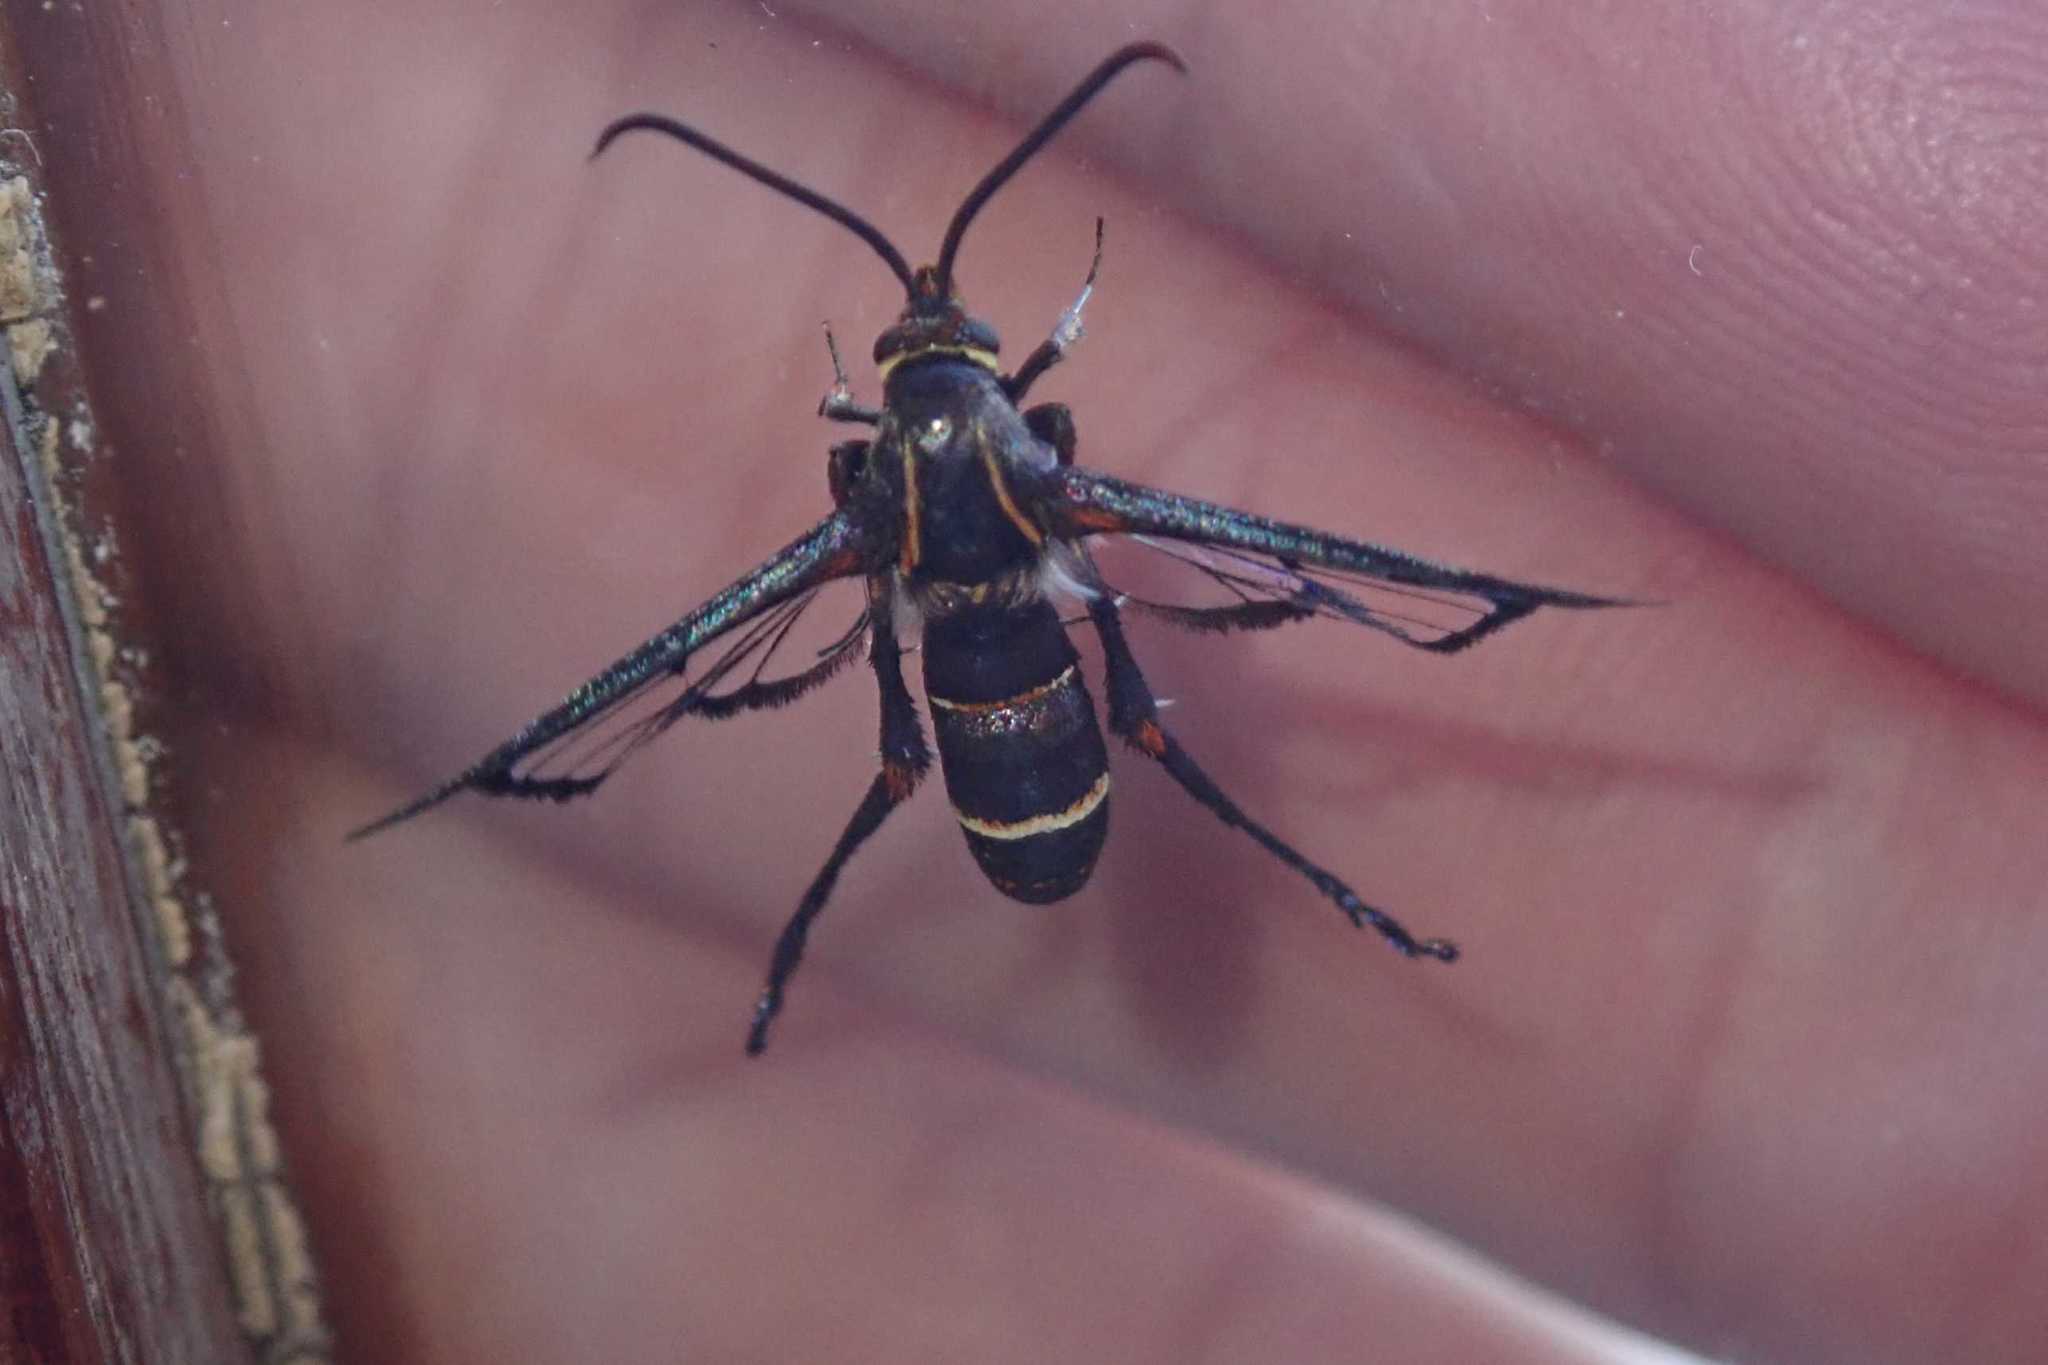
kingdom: Animalia
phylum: Arthropoda
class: Insecta
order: Lepidoptera
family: Sesiidae
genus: Macrotarsipodes
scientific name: Macrotarsipodes tricinctus
